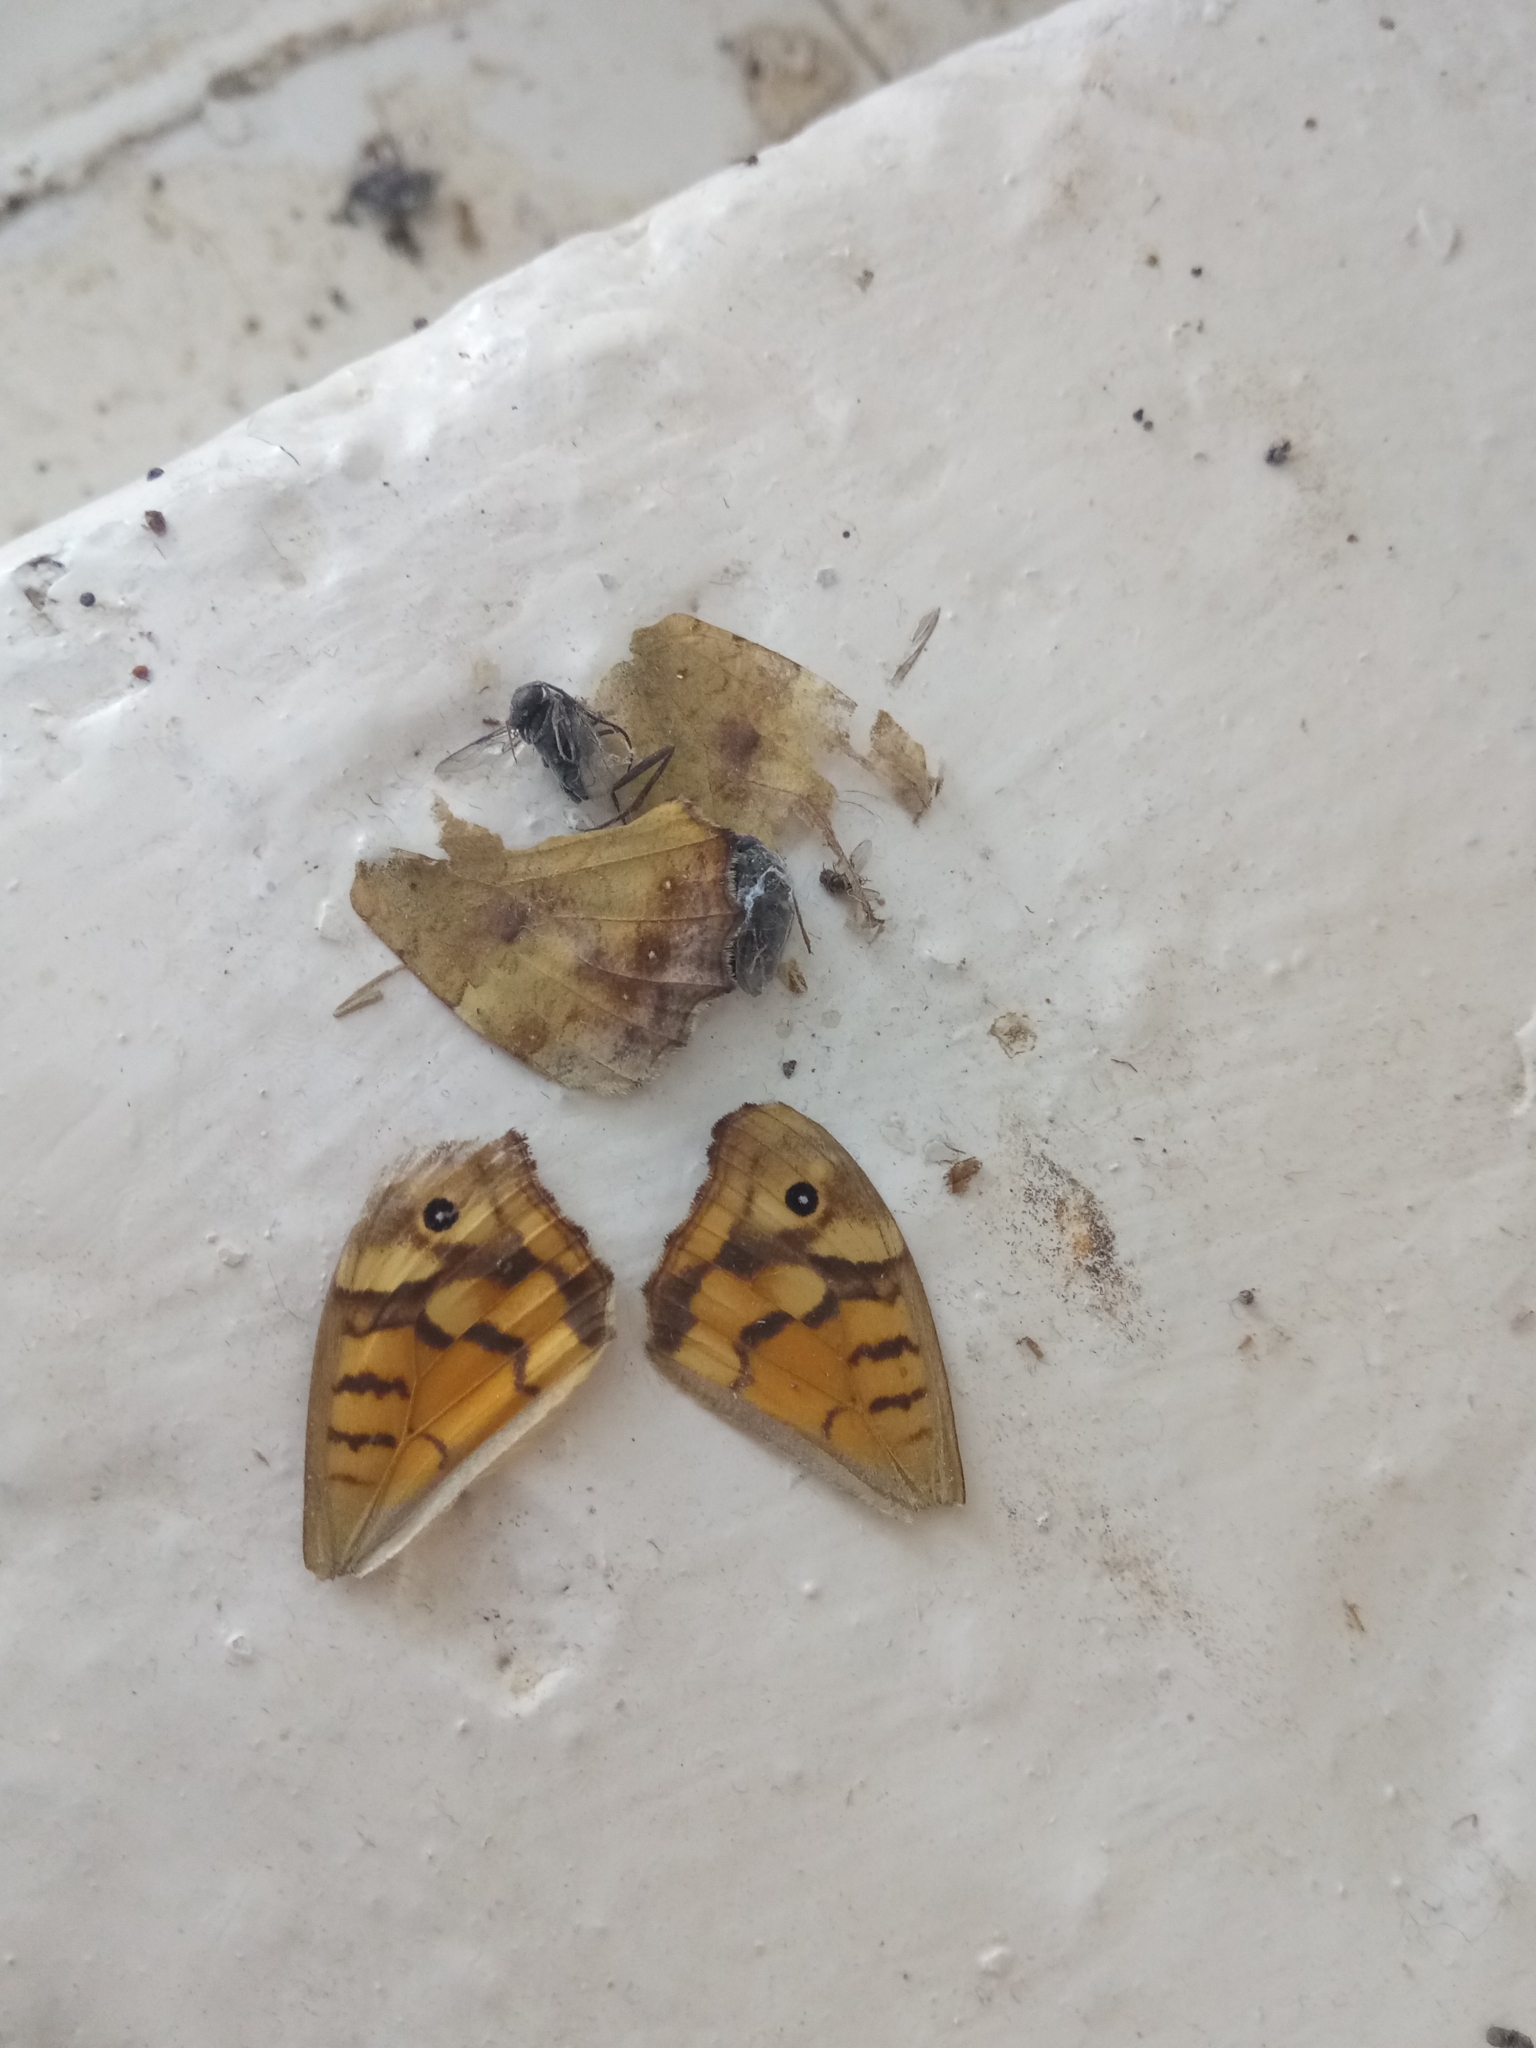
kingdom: Animalia
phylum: Arthropoda
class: Insecta
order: Lepidoptera
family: Nymphalidae
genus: Pararge
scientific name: Pararge aegeria
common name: Speckled wood
